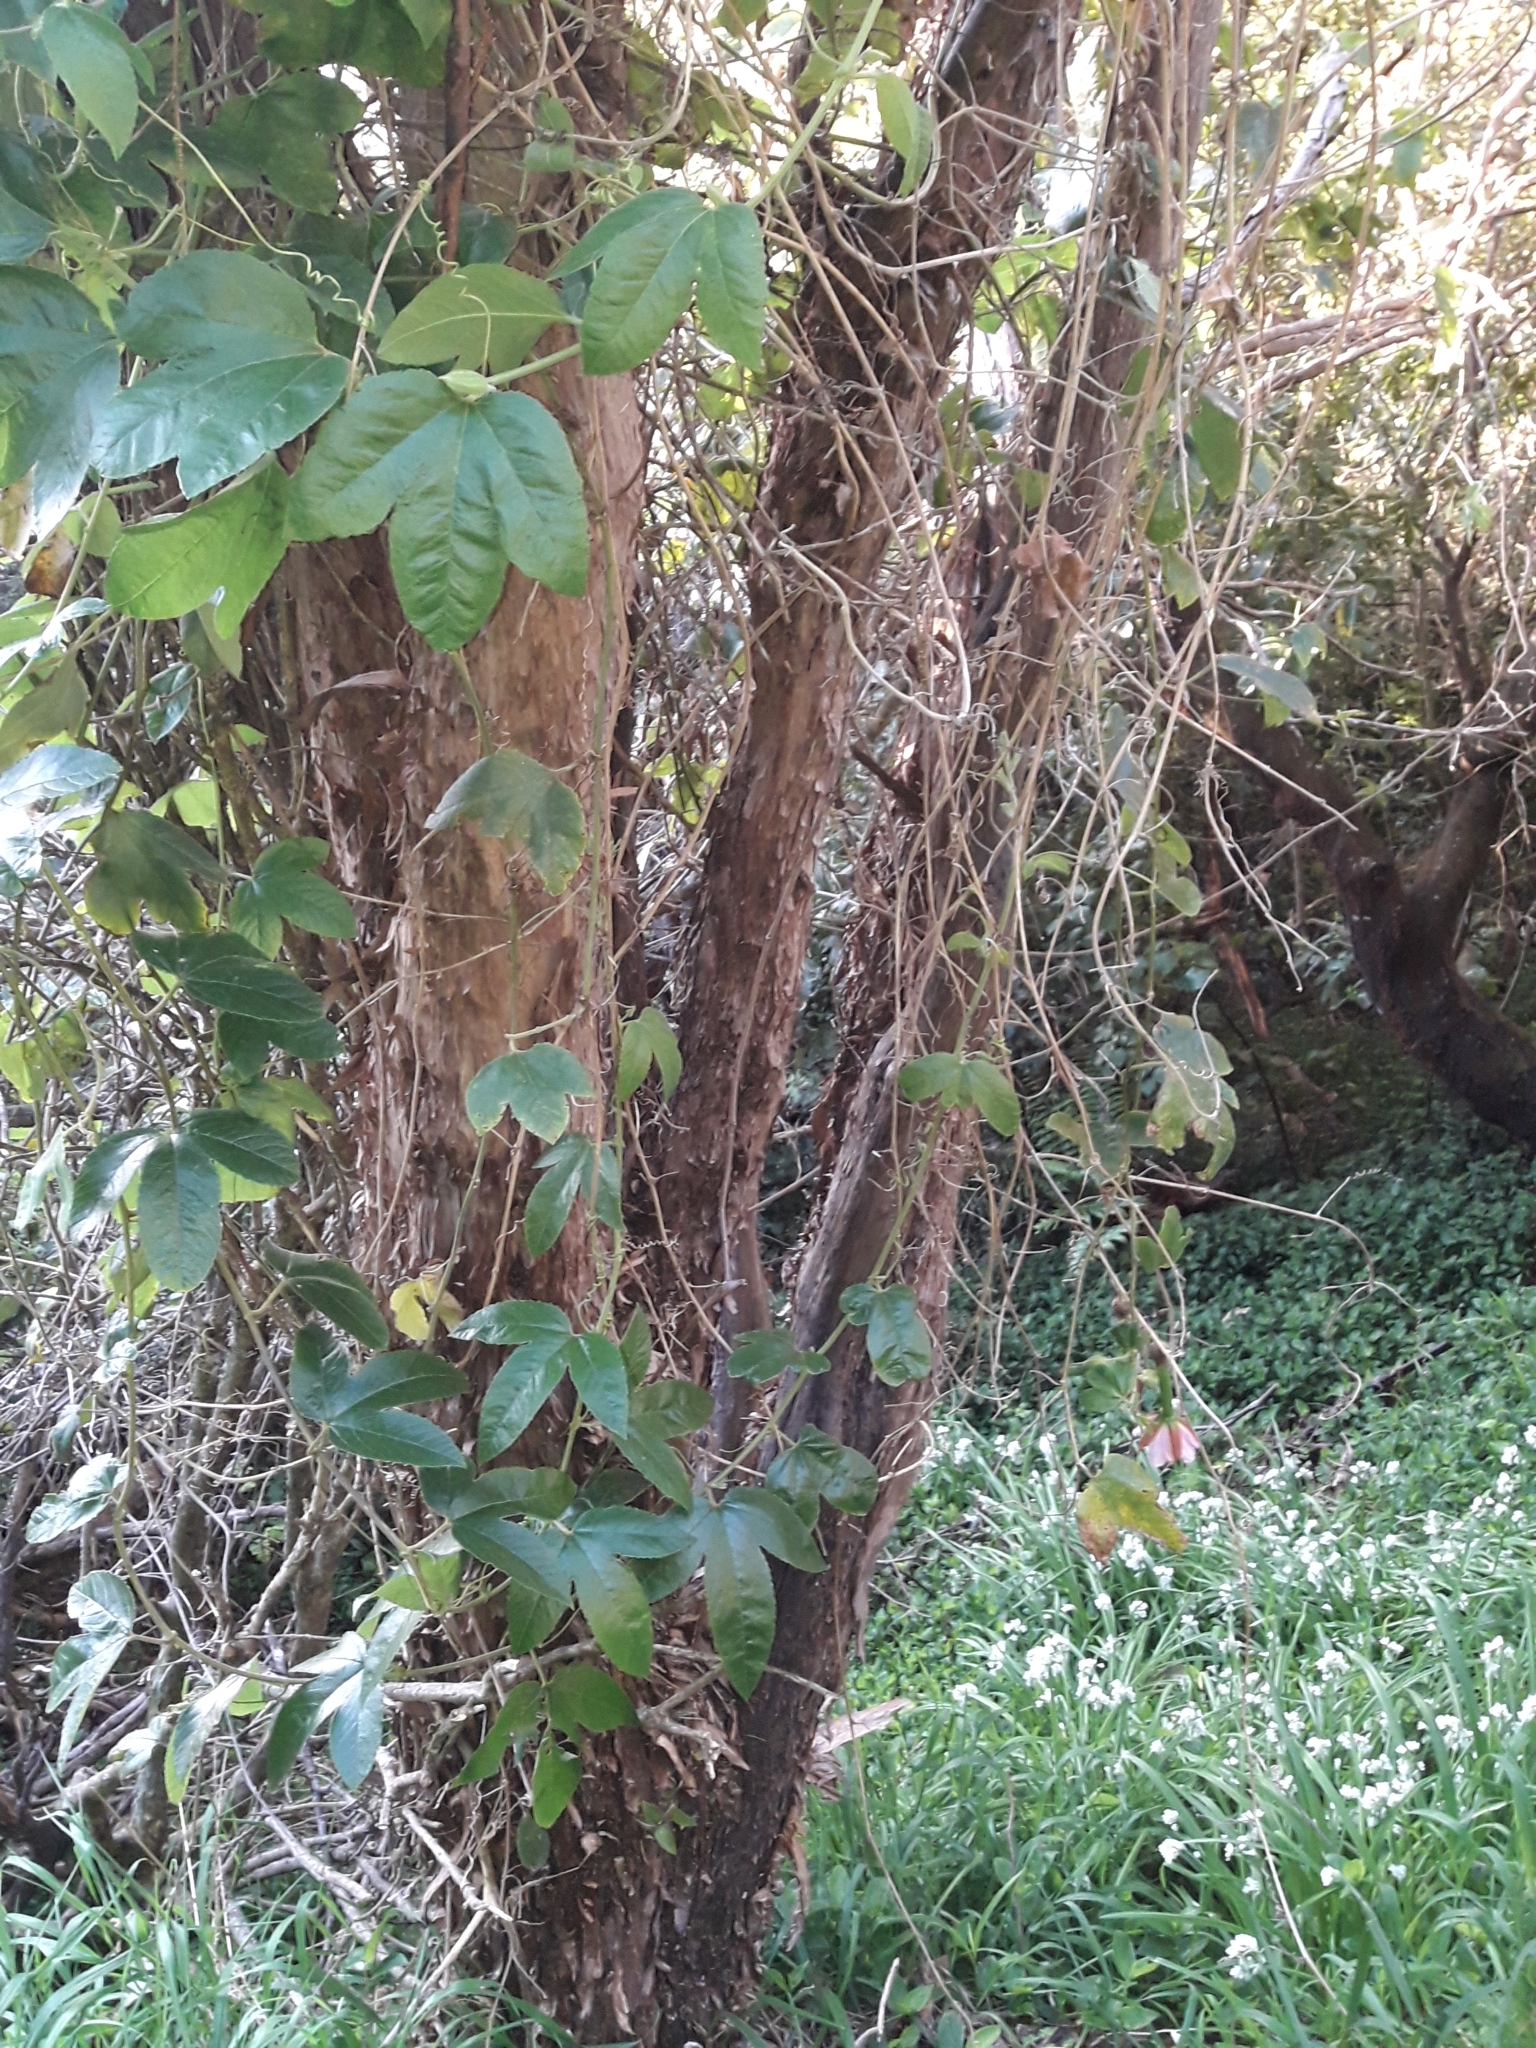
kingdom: Plantae
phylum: Tracheophyta
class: Magnoliopsida
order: Malpighiales
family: Passifloraceae
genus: Passiflora
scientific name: Passiflora tarminiana
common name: Banana poka
